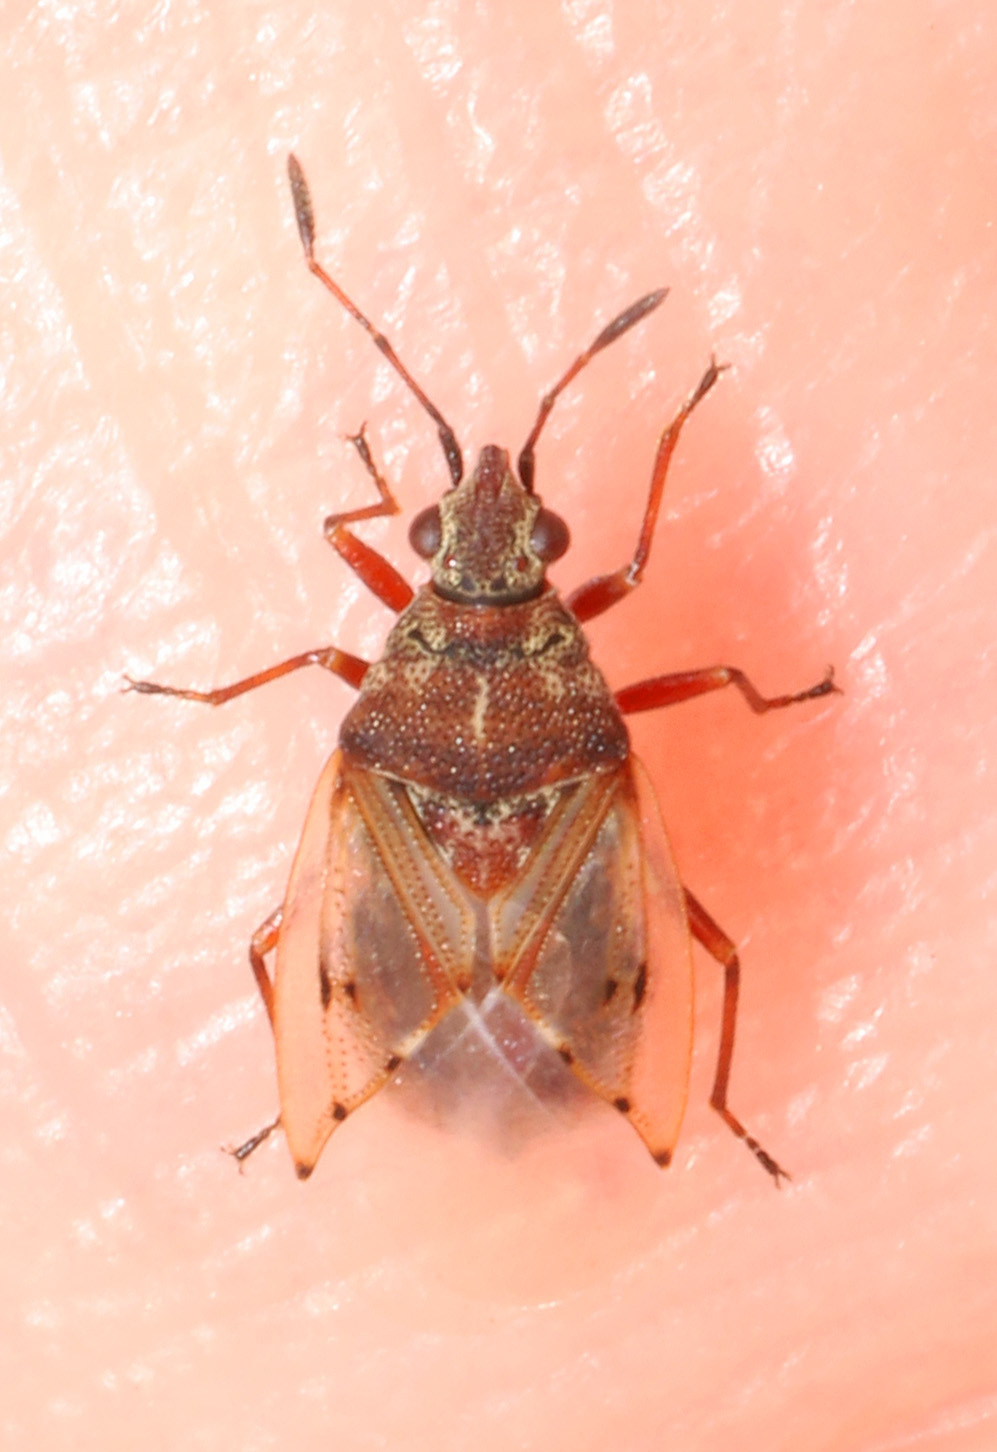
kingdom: Animalia
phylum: Arthropoda
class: Insecta
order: Hemiptera
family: Lygaeidae
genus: Kleidocerys
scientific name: Kleidocerys resedae
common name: Birch catkin bug
